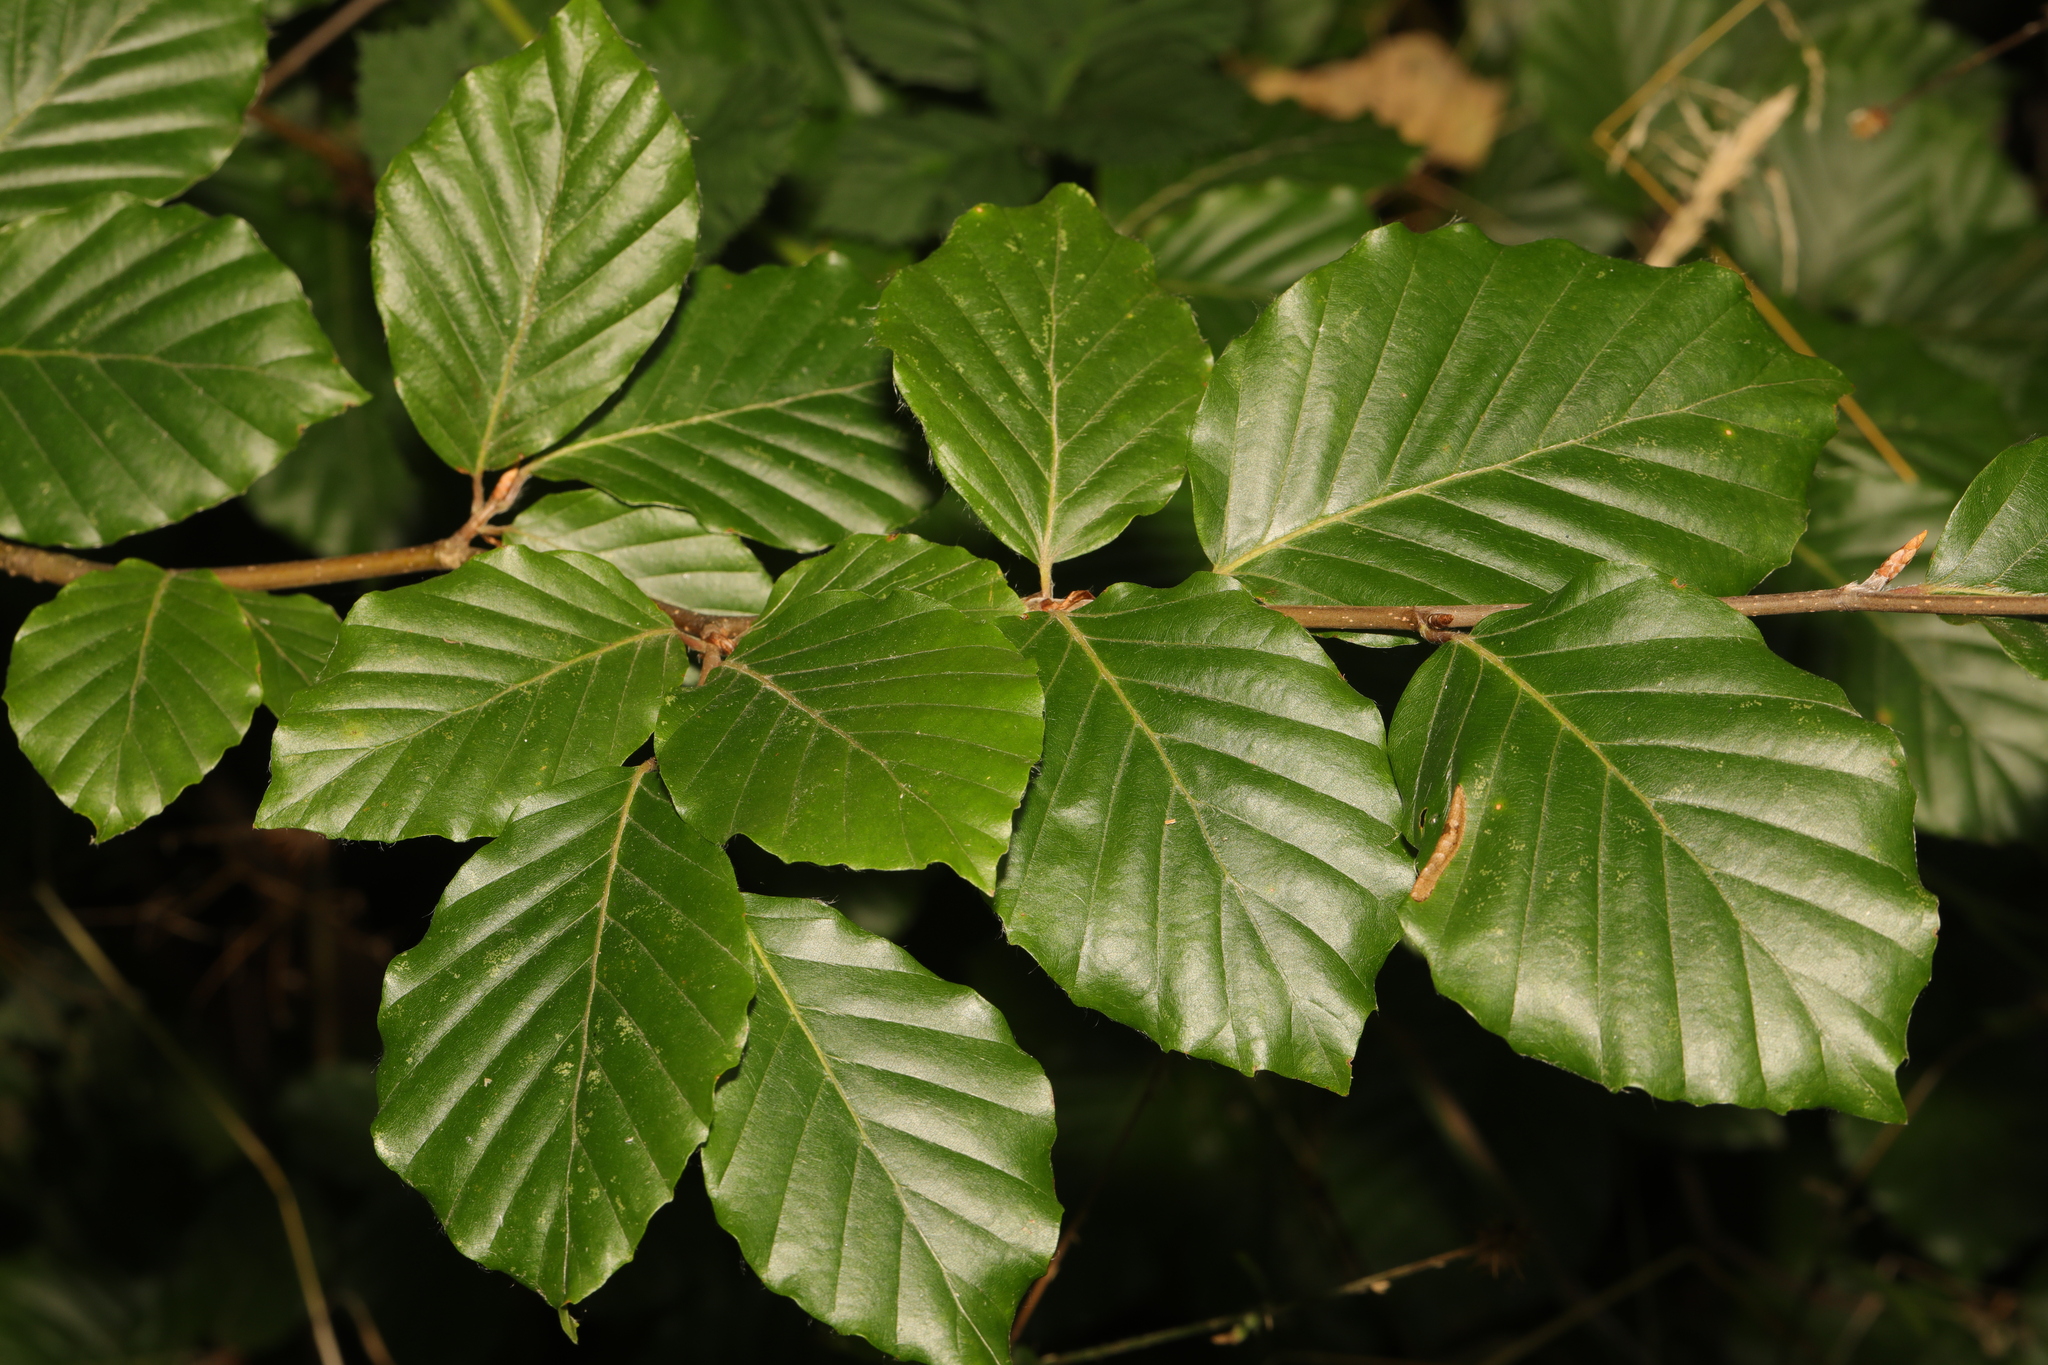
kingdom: Plantae
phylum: Tracheophyta
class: Magnoliopsida
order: Fagales
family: Fagaceae
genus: Fagus
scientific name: Fagus sylvatica
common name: Beech
